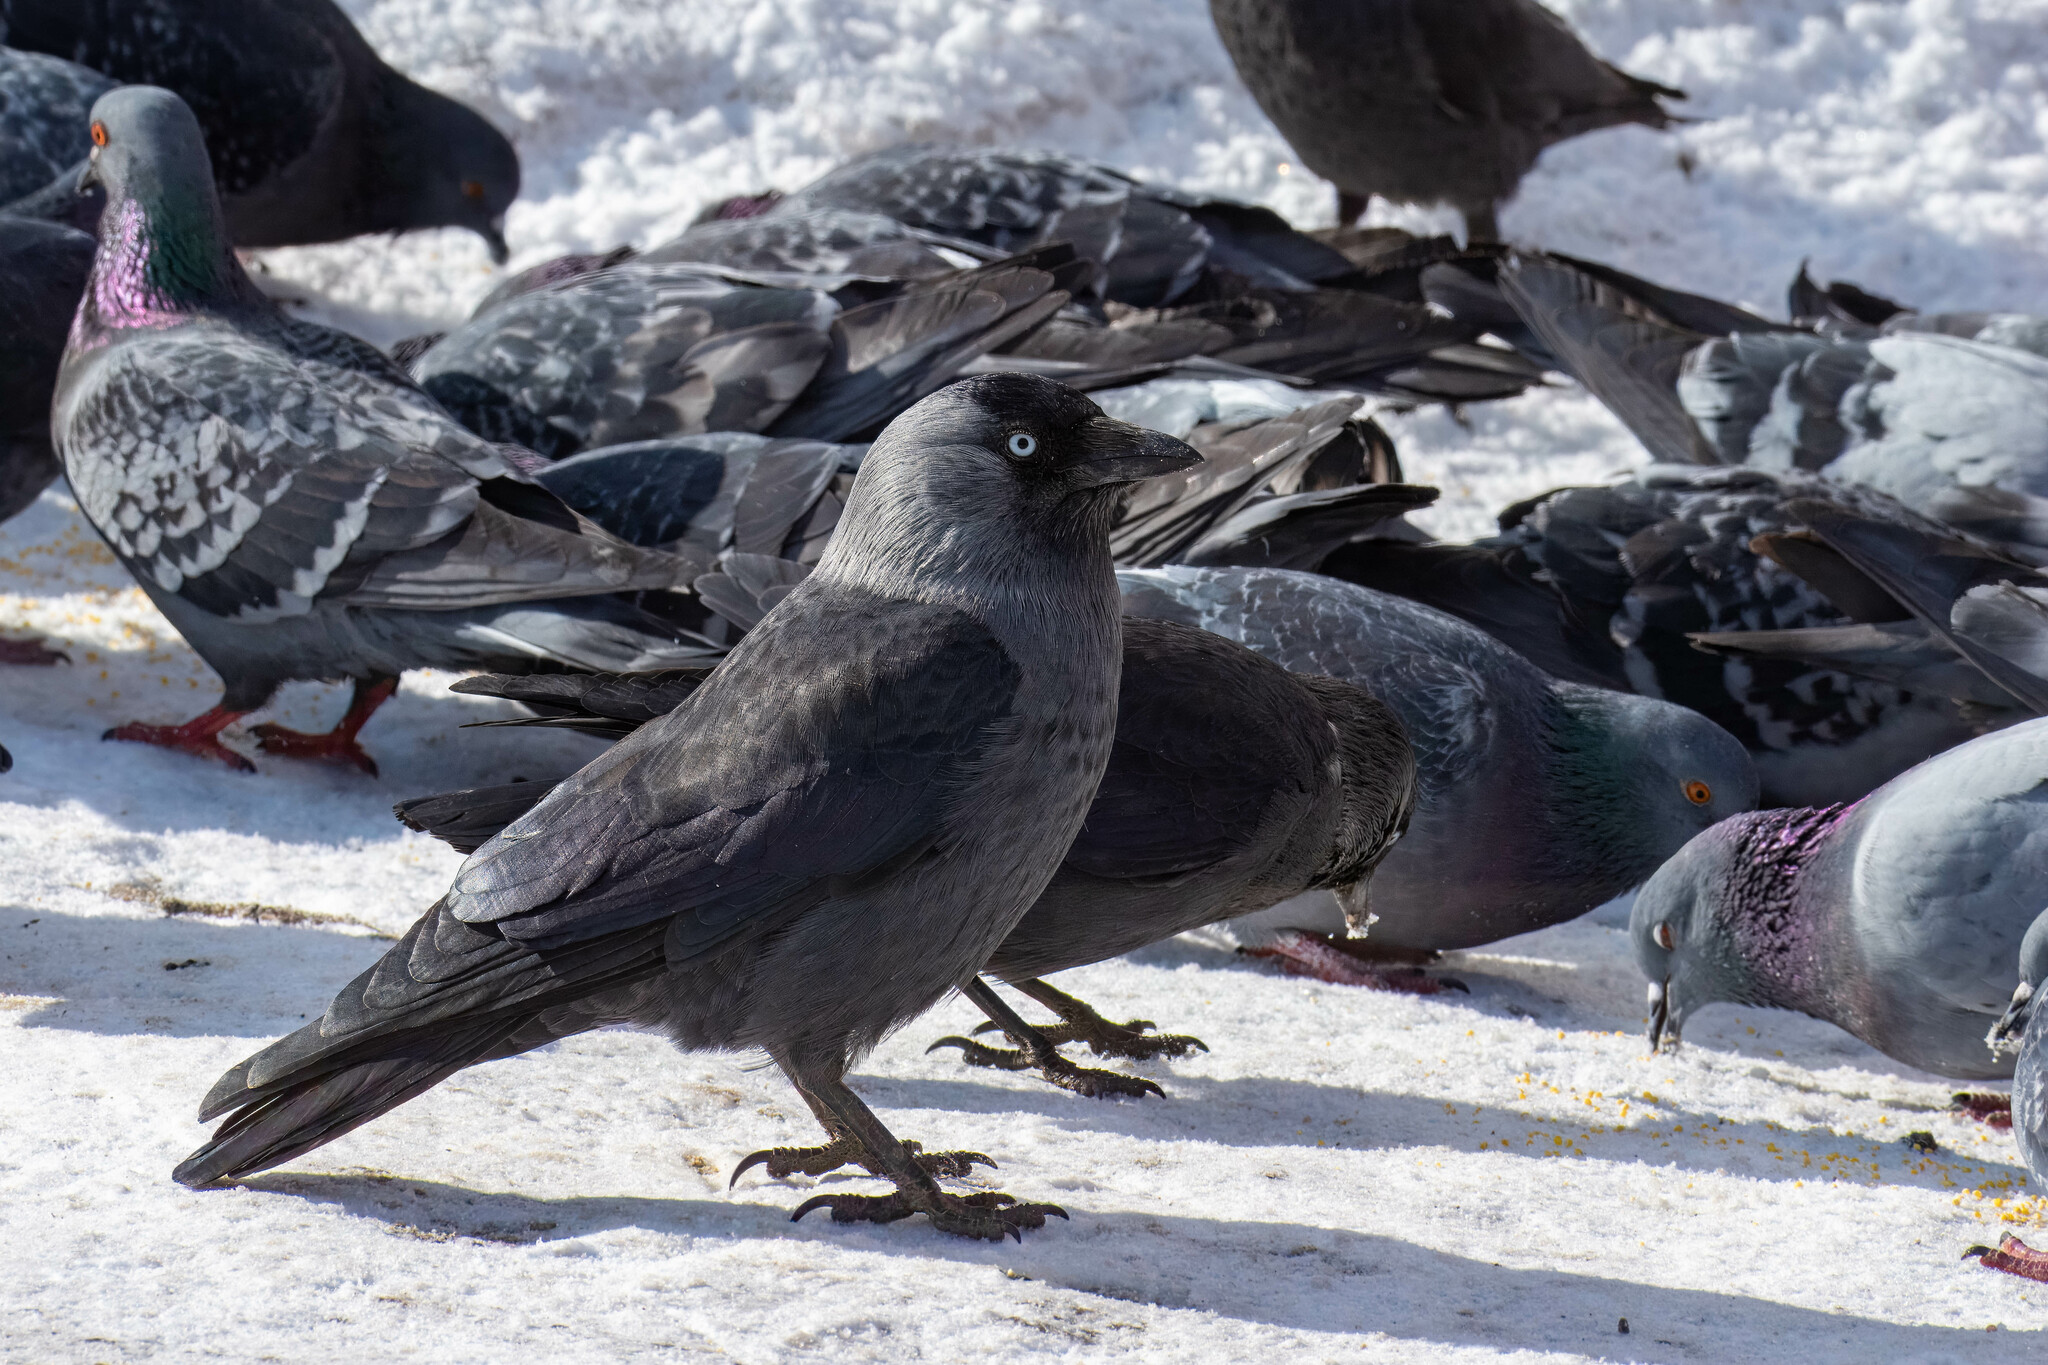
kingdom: Animalia
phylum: Chordata
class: Aves
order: Passeriformes
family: Corvidae
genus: Coloeus
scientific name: Coloeus monedula
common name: Western jackdaw
